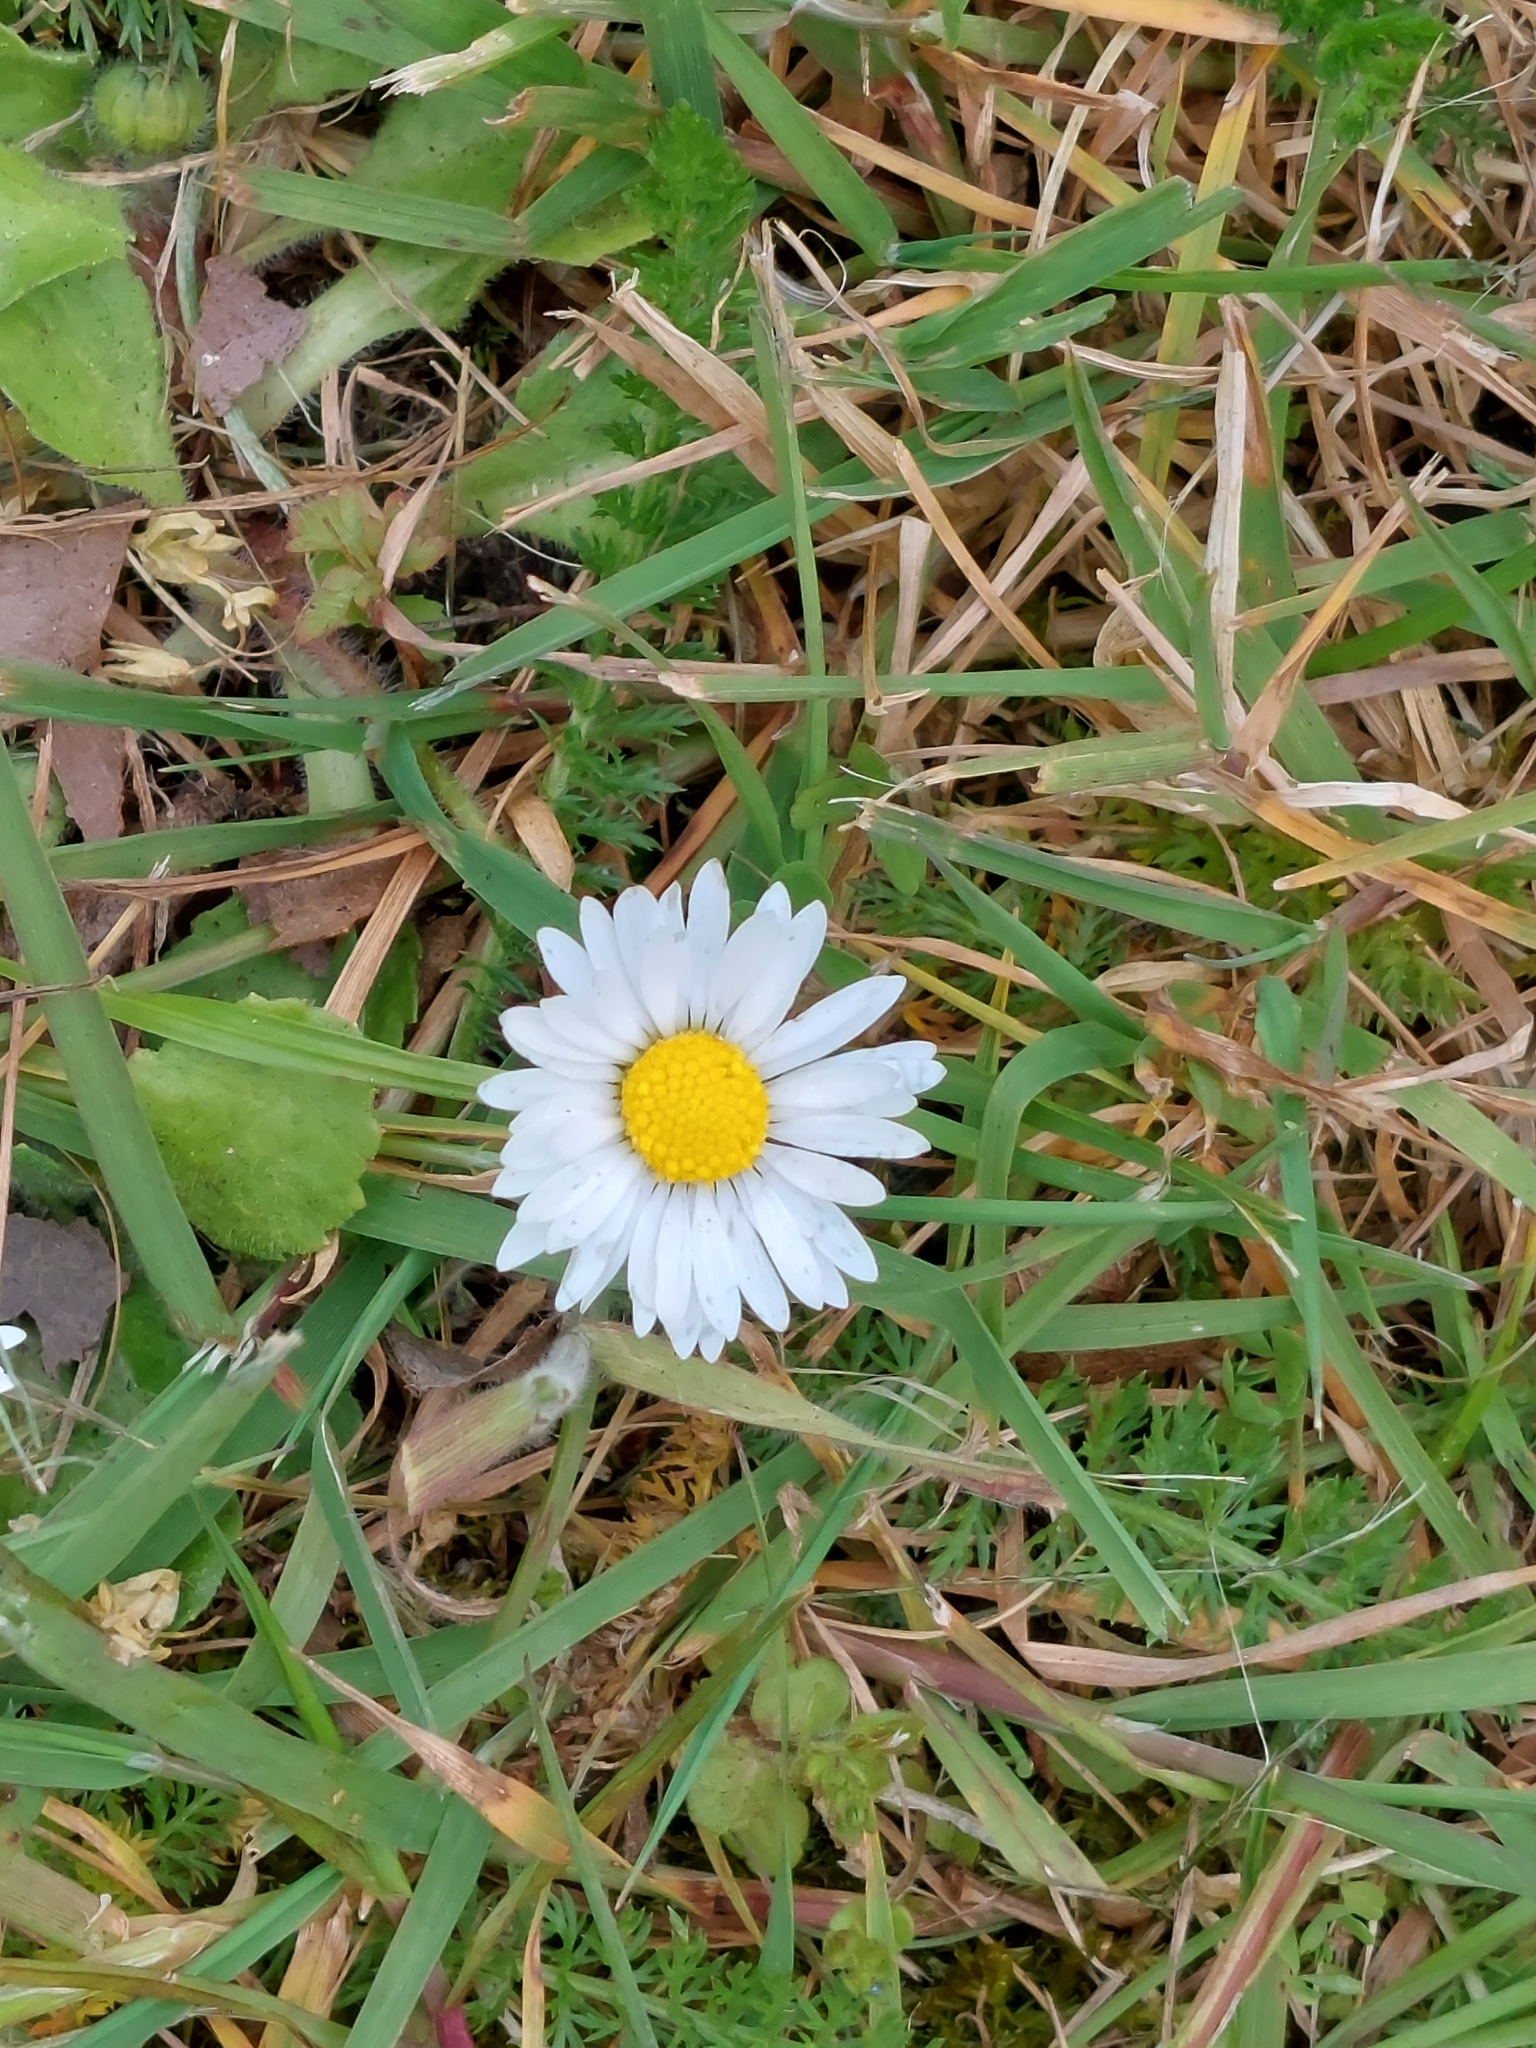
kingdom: Plantae
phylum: Tracheophyta
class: Magnoliopsida
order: Asterales
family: Asteraceae
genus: Bellis
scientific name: Bellis perennis
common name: Lawndaisy
